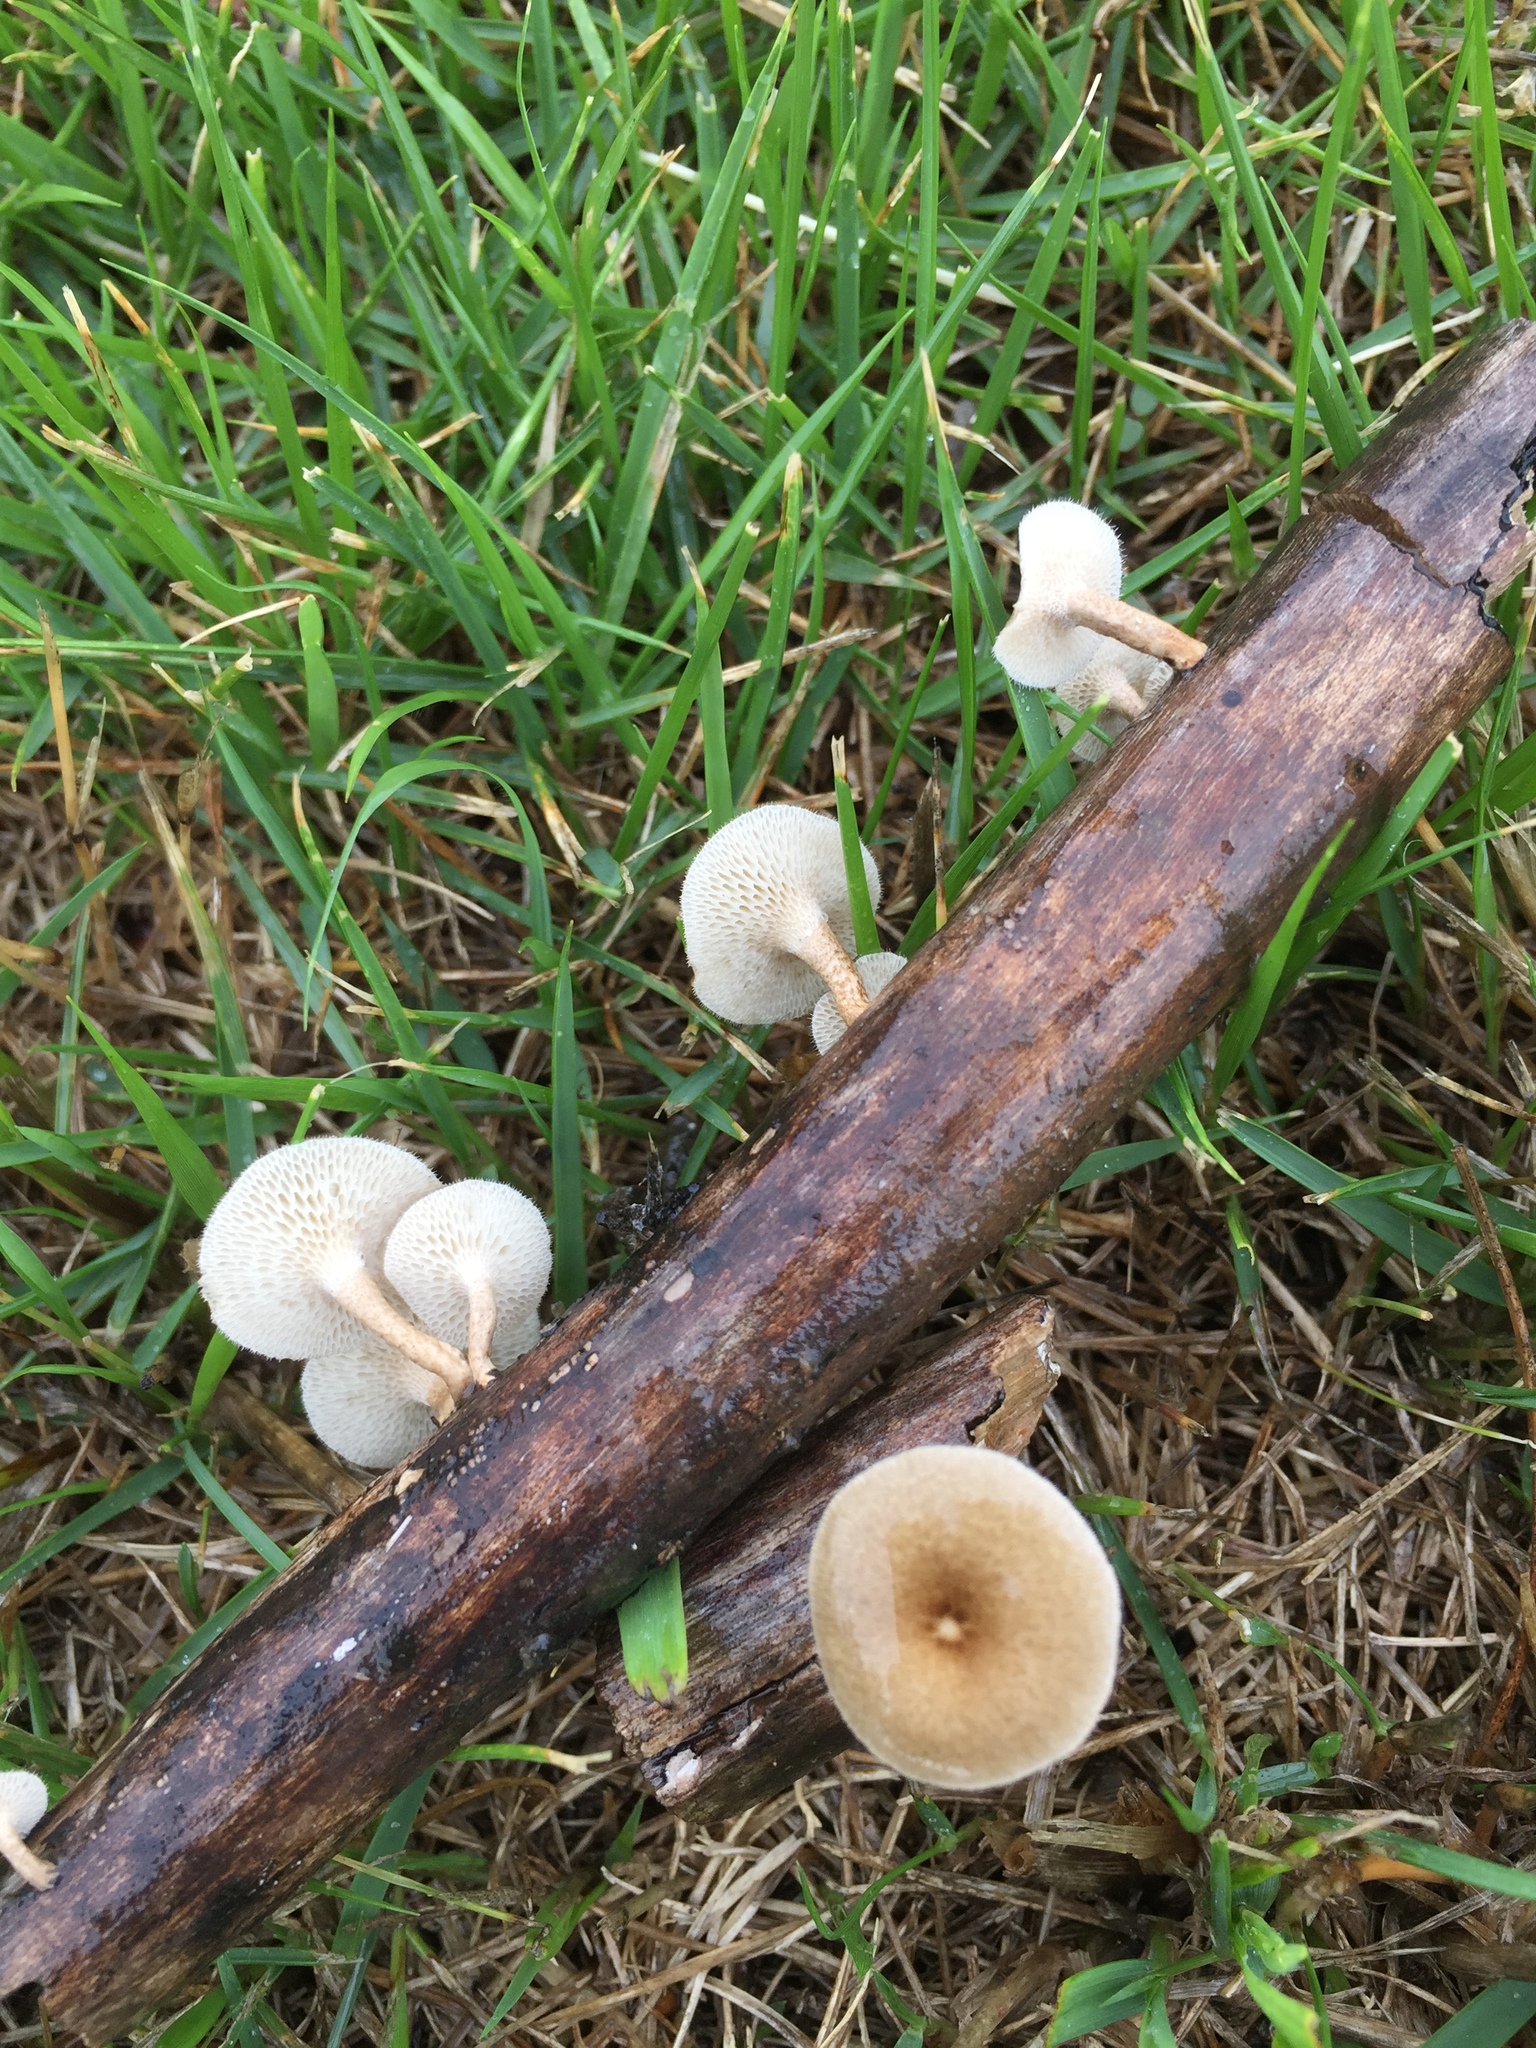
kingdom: Fungi
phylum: Basidiomycota
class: Agaricomycetes
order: Polyporales
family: Polyporaceae
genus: Lentinus
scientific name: Lentinus arcularius
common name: Spring polypore
